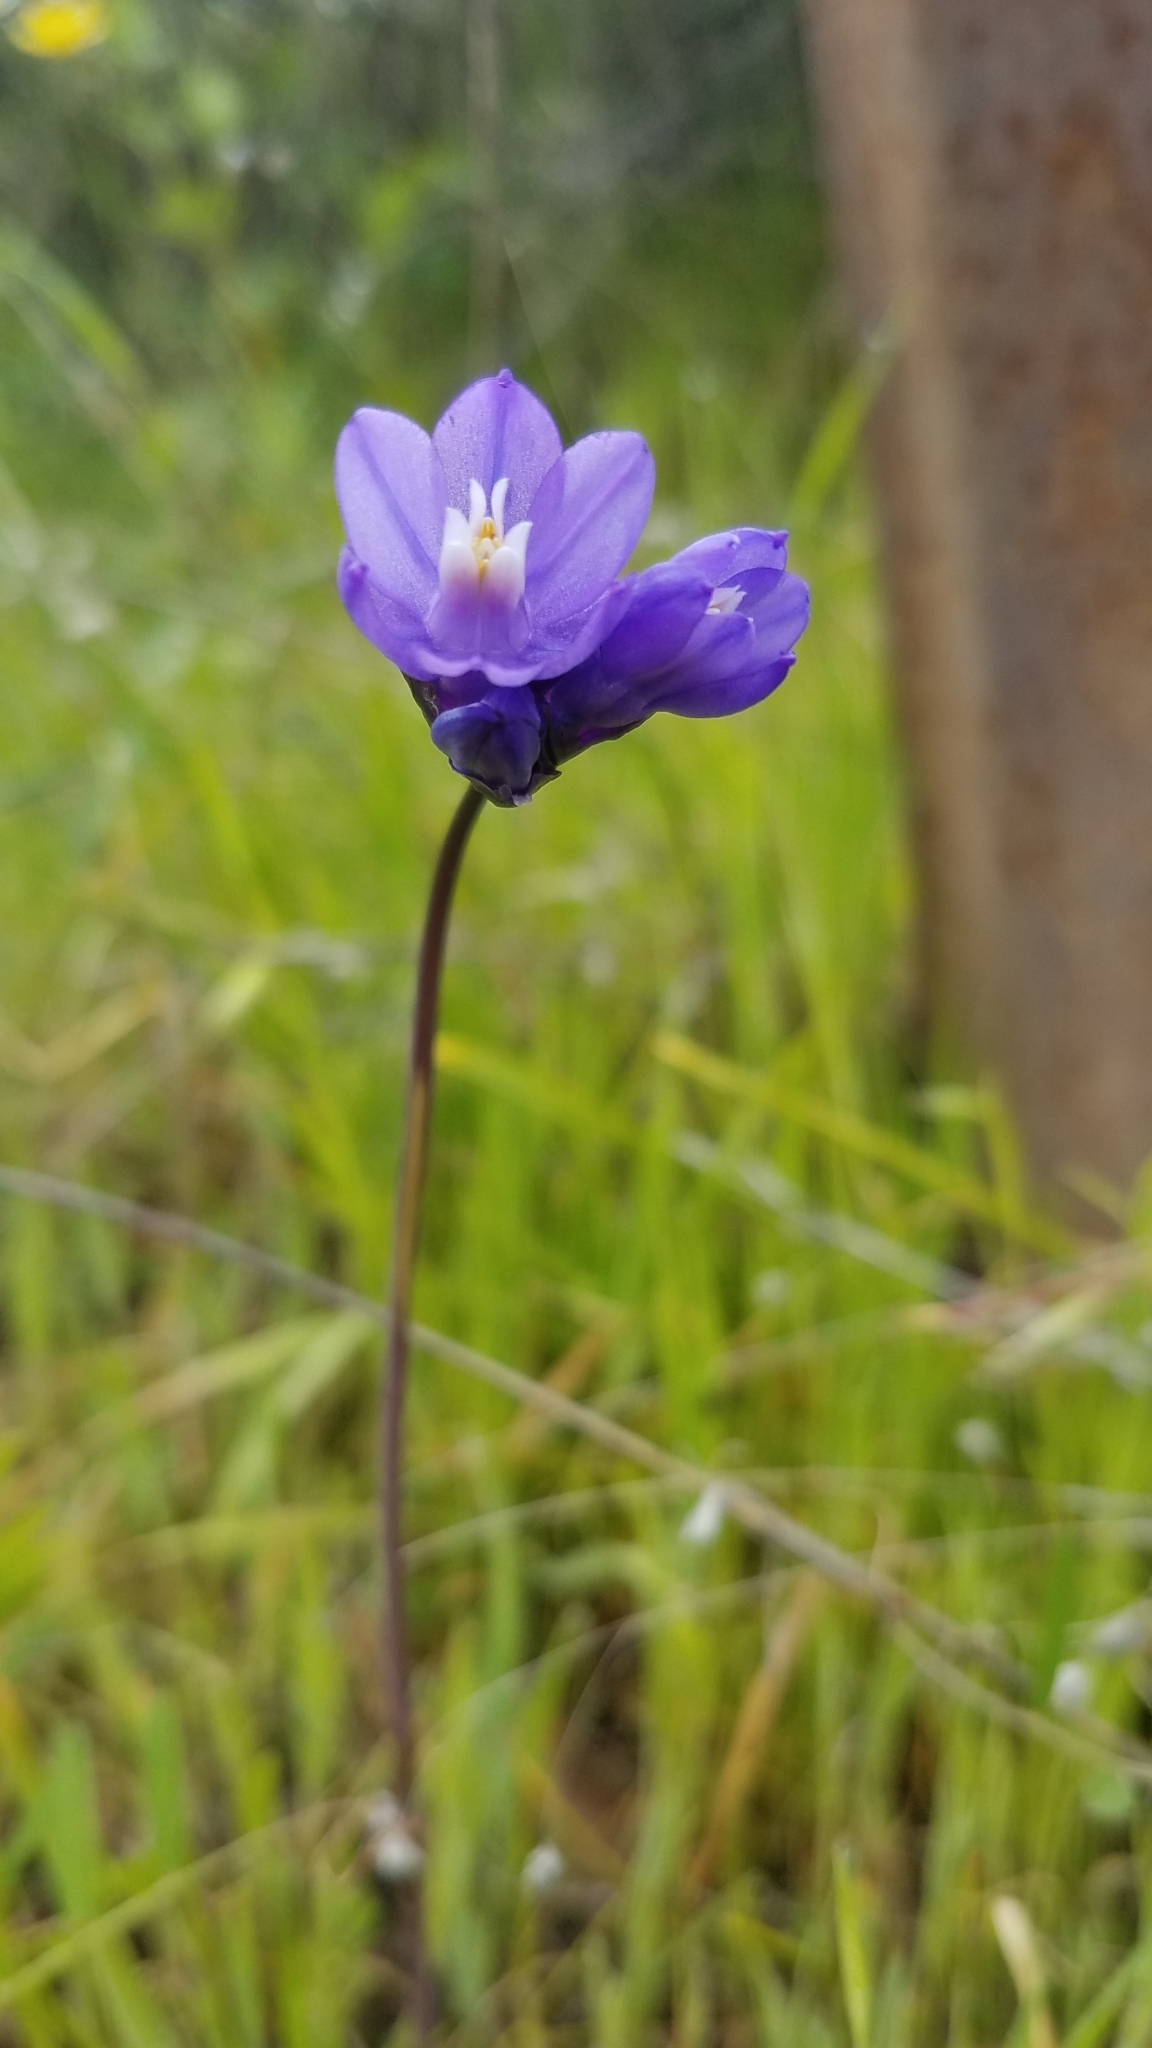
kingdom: Plantae
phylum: Tracheophyta
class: Liliopsida
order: Asparagales
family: Asparagaceae
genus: Dipterostemon
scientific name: Dipterostemon capitatus
